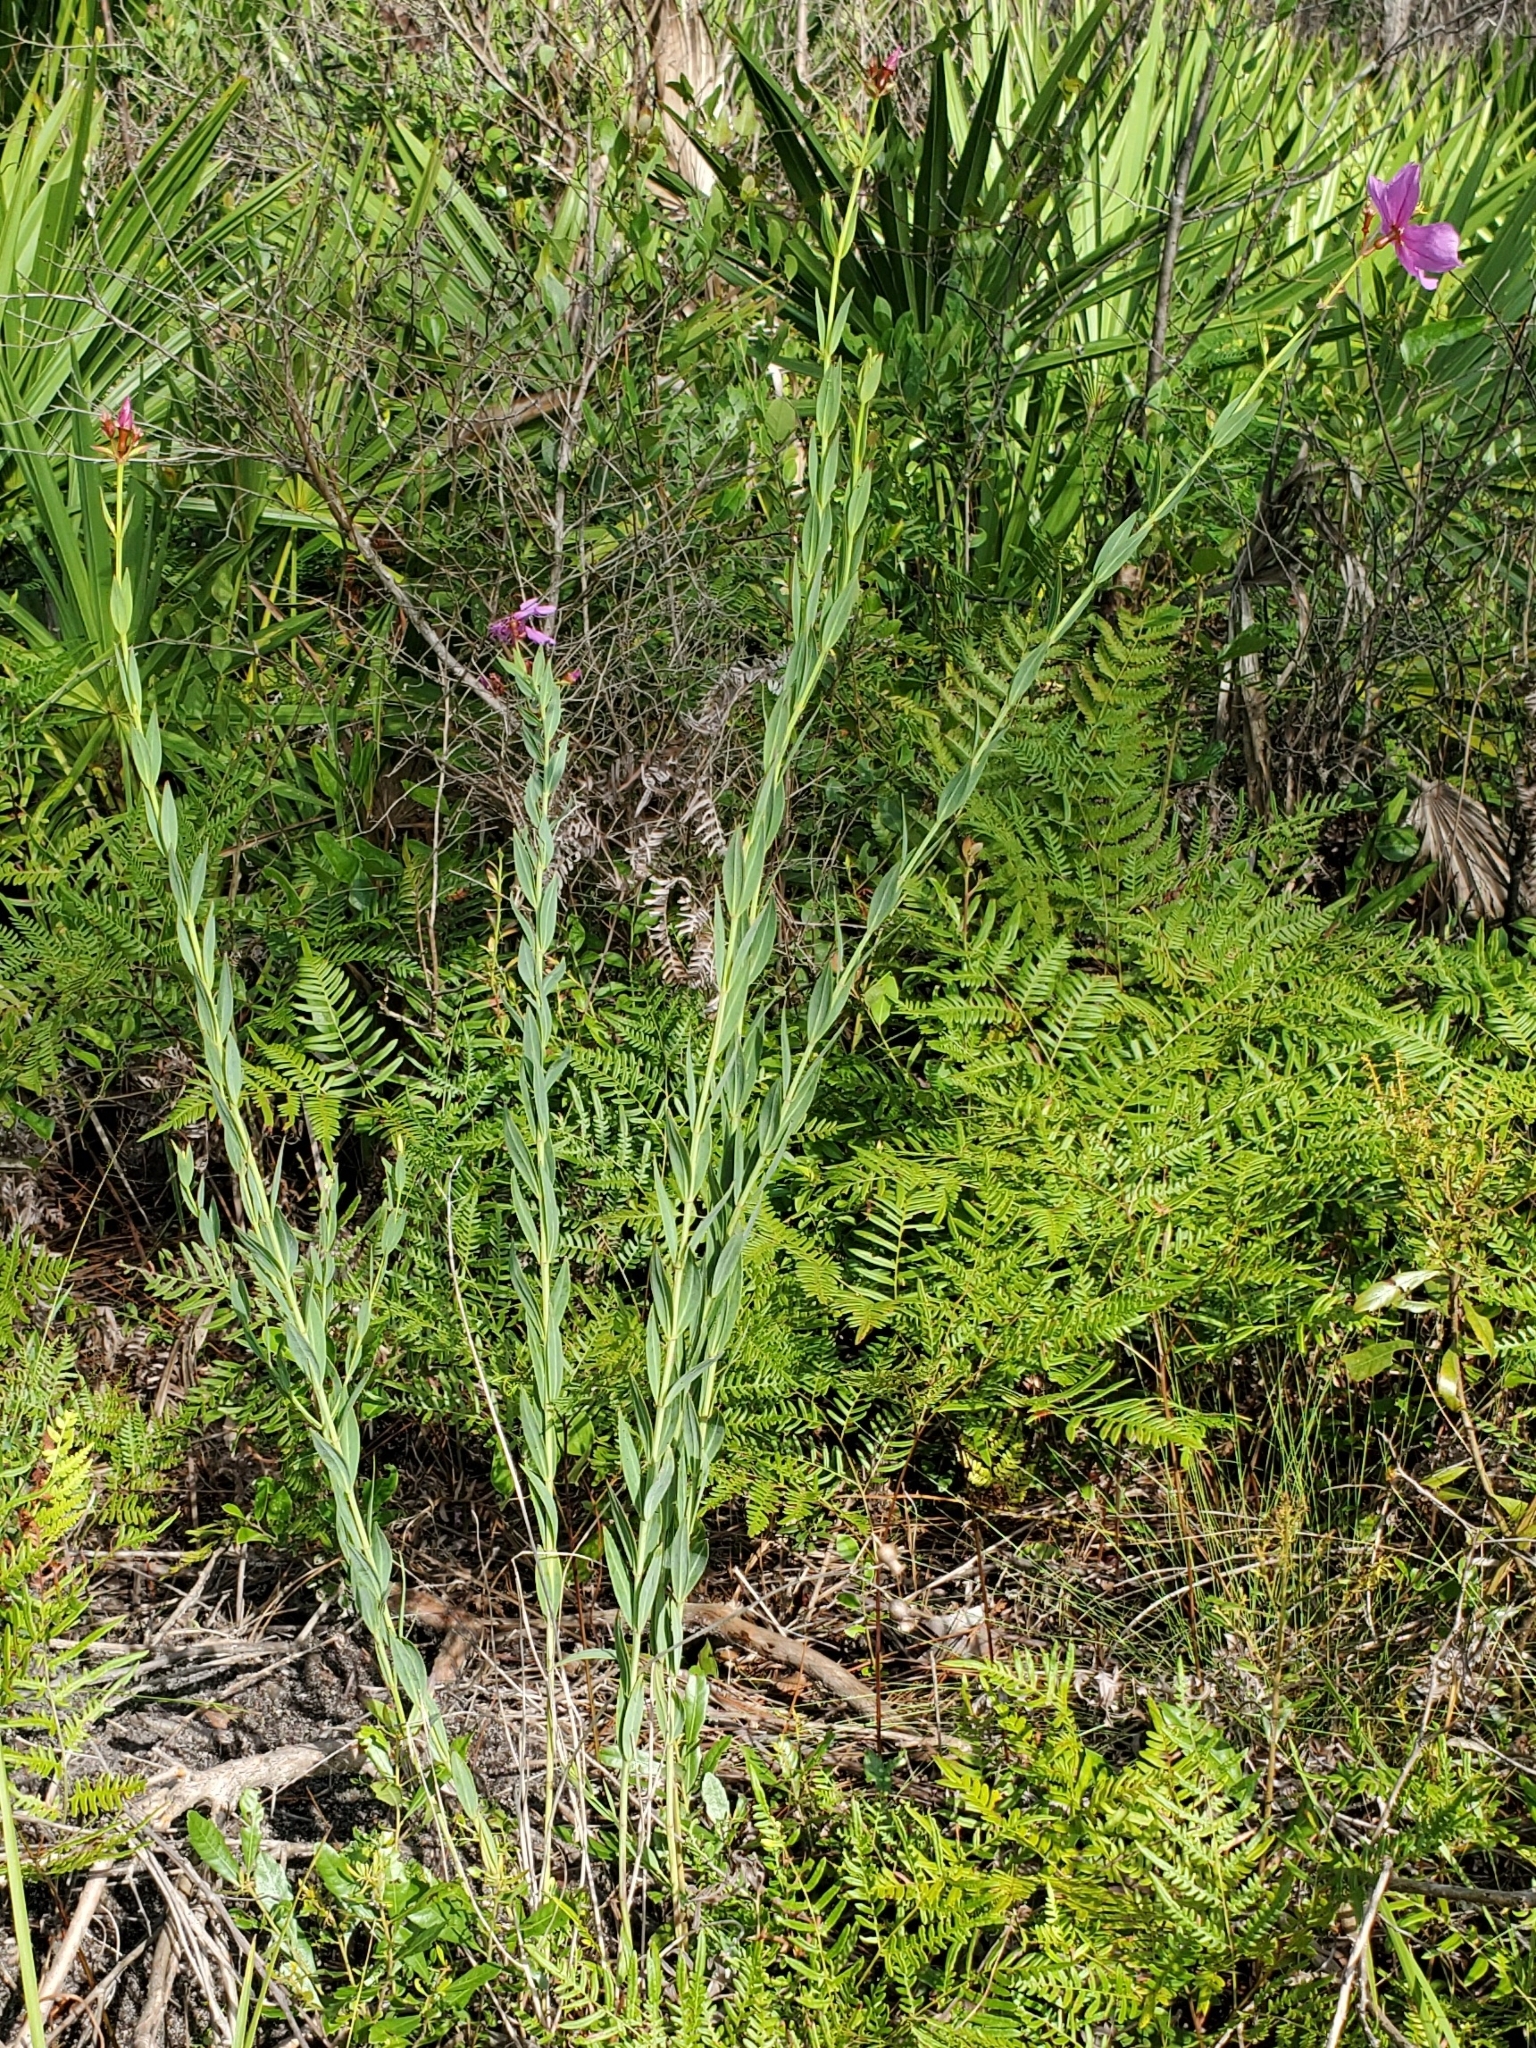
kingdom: Plantae
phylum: Tracheophyta
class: Magnoliopsida
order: Myrtales
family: Melastomataceae
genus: Rhexia
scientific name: Rhexia alifanus
